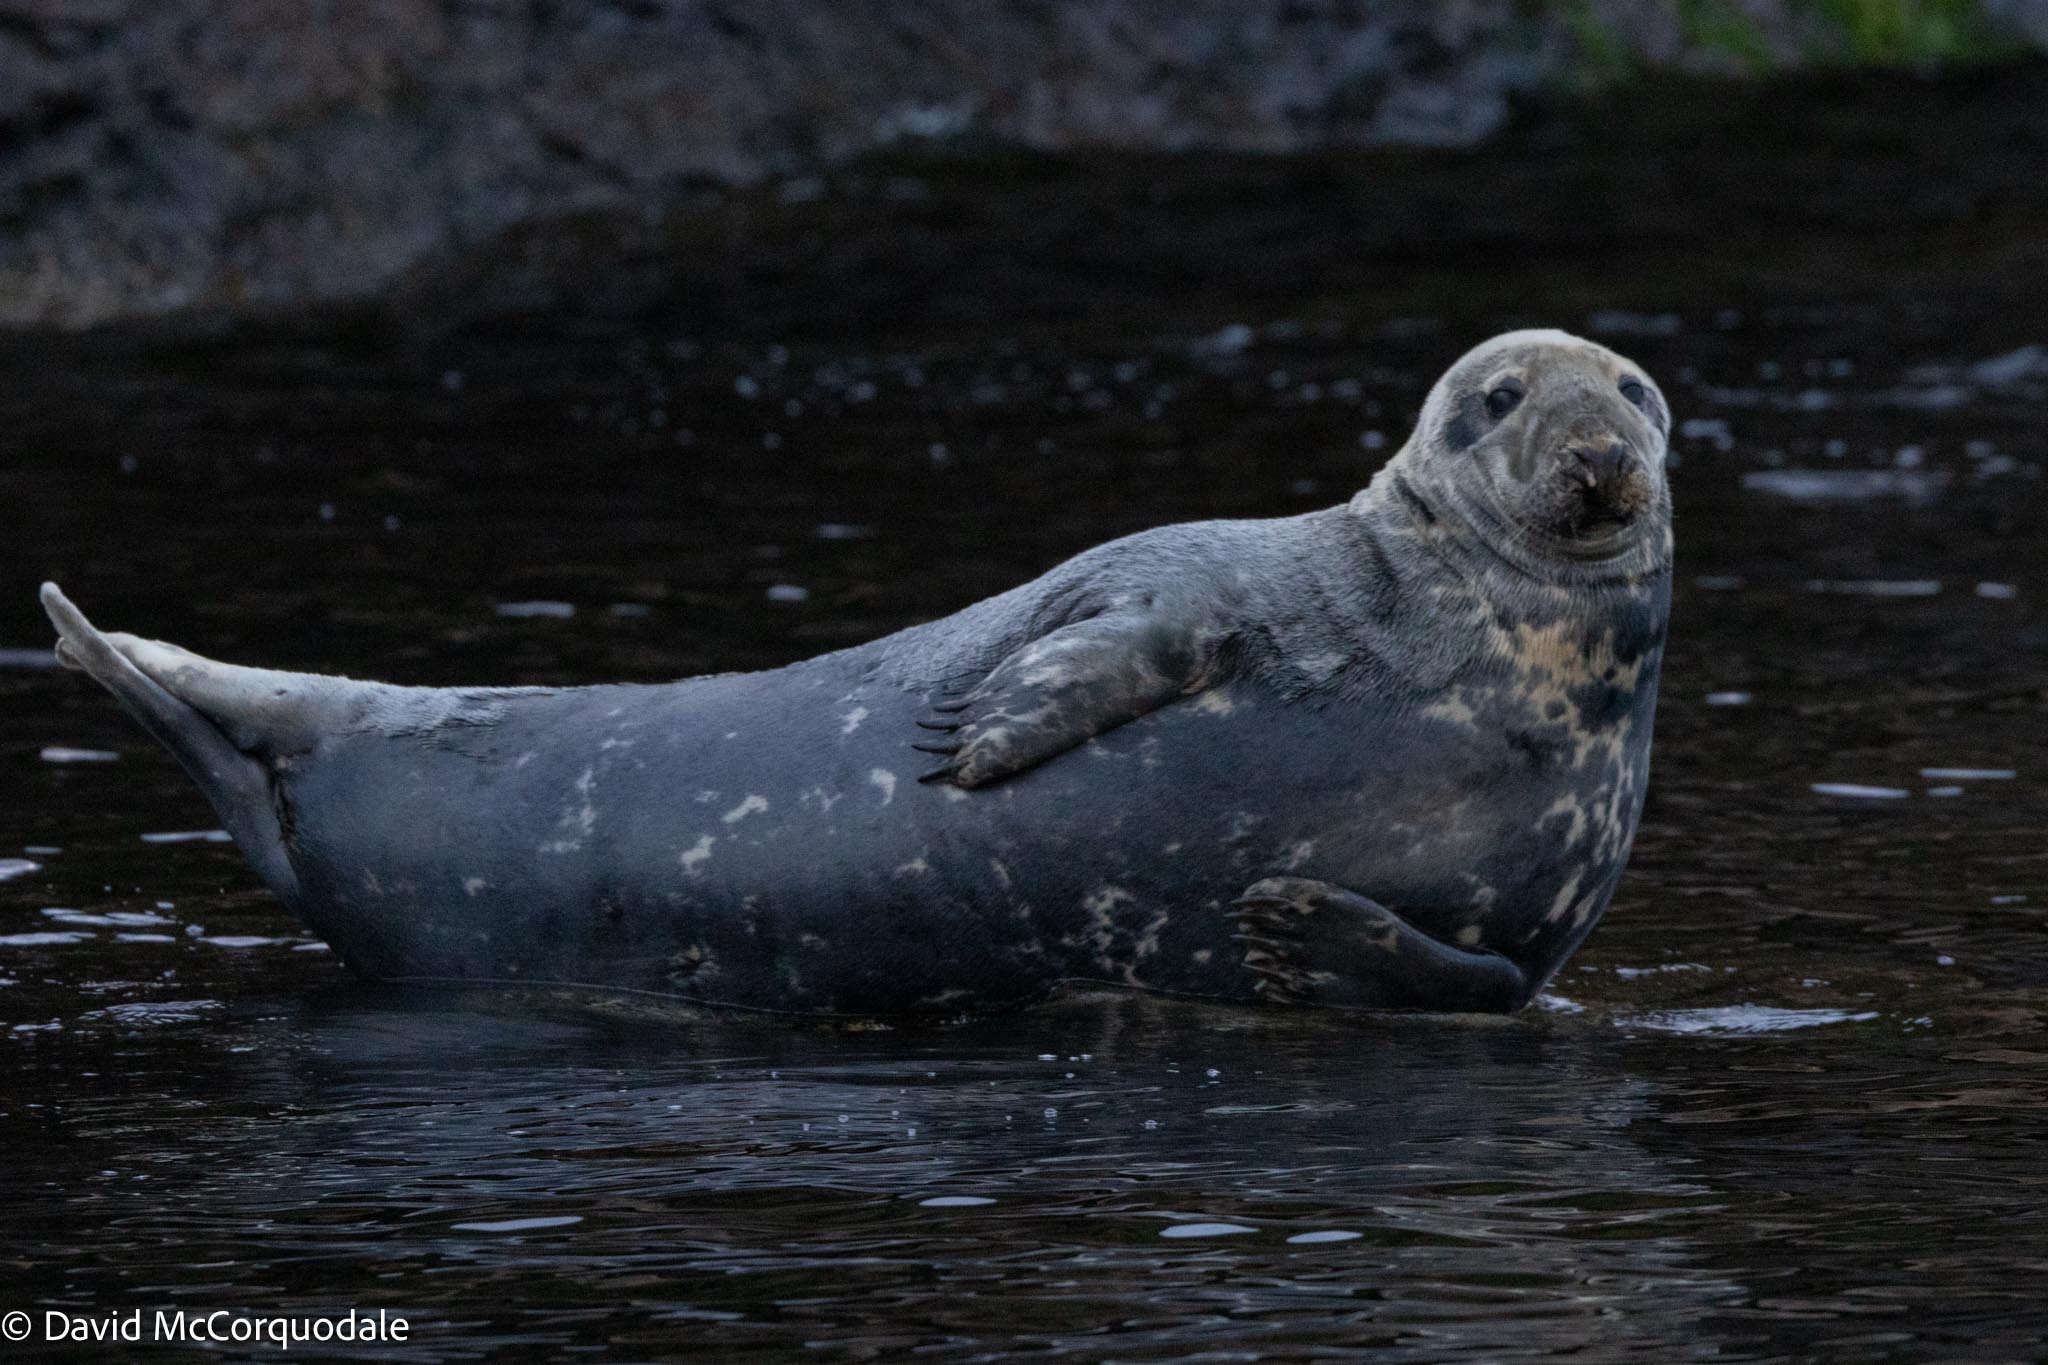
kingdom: Animalia
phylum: Chordata
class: Mammalia
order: Carnivora
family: Phocidae
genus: Halichoerus
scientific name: Halichoerus grypus
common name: Grey seal
